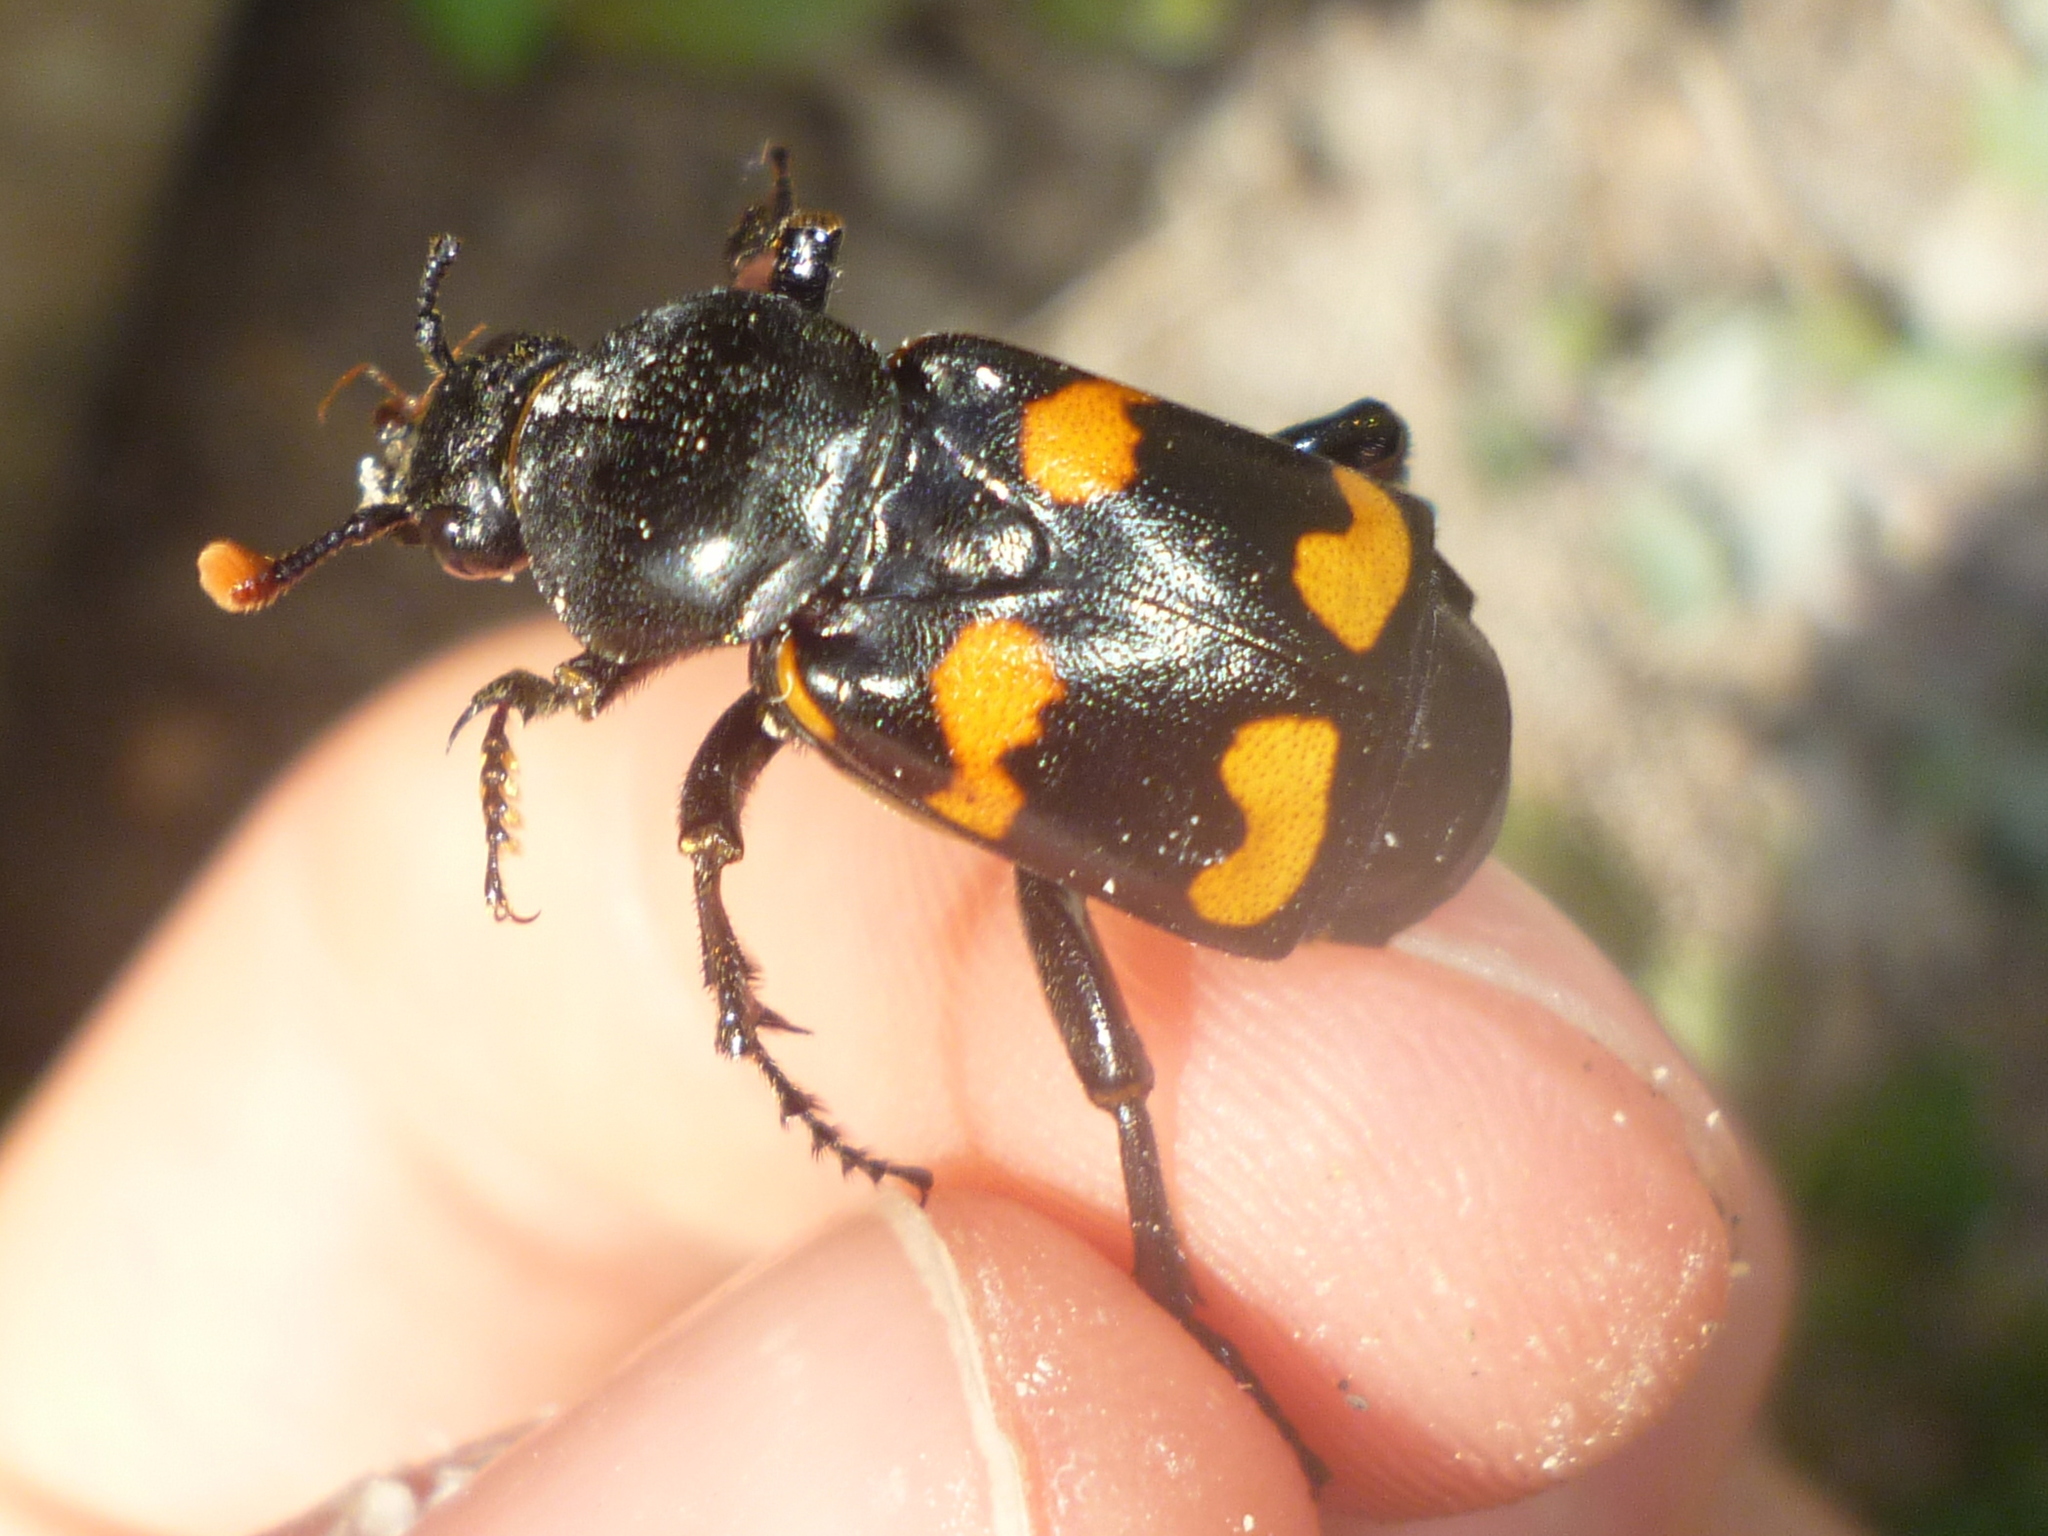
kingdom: Animalia
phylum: Arthropoda
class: Insecta
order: Coleoptera
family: Staphylinidae
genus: Nicrophorus
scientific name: Nicrophorus carolinus
